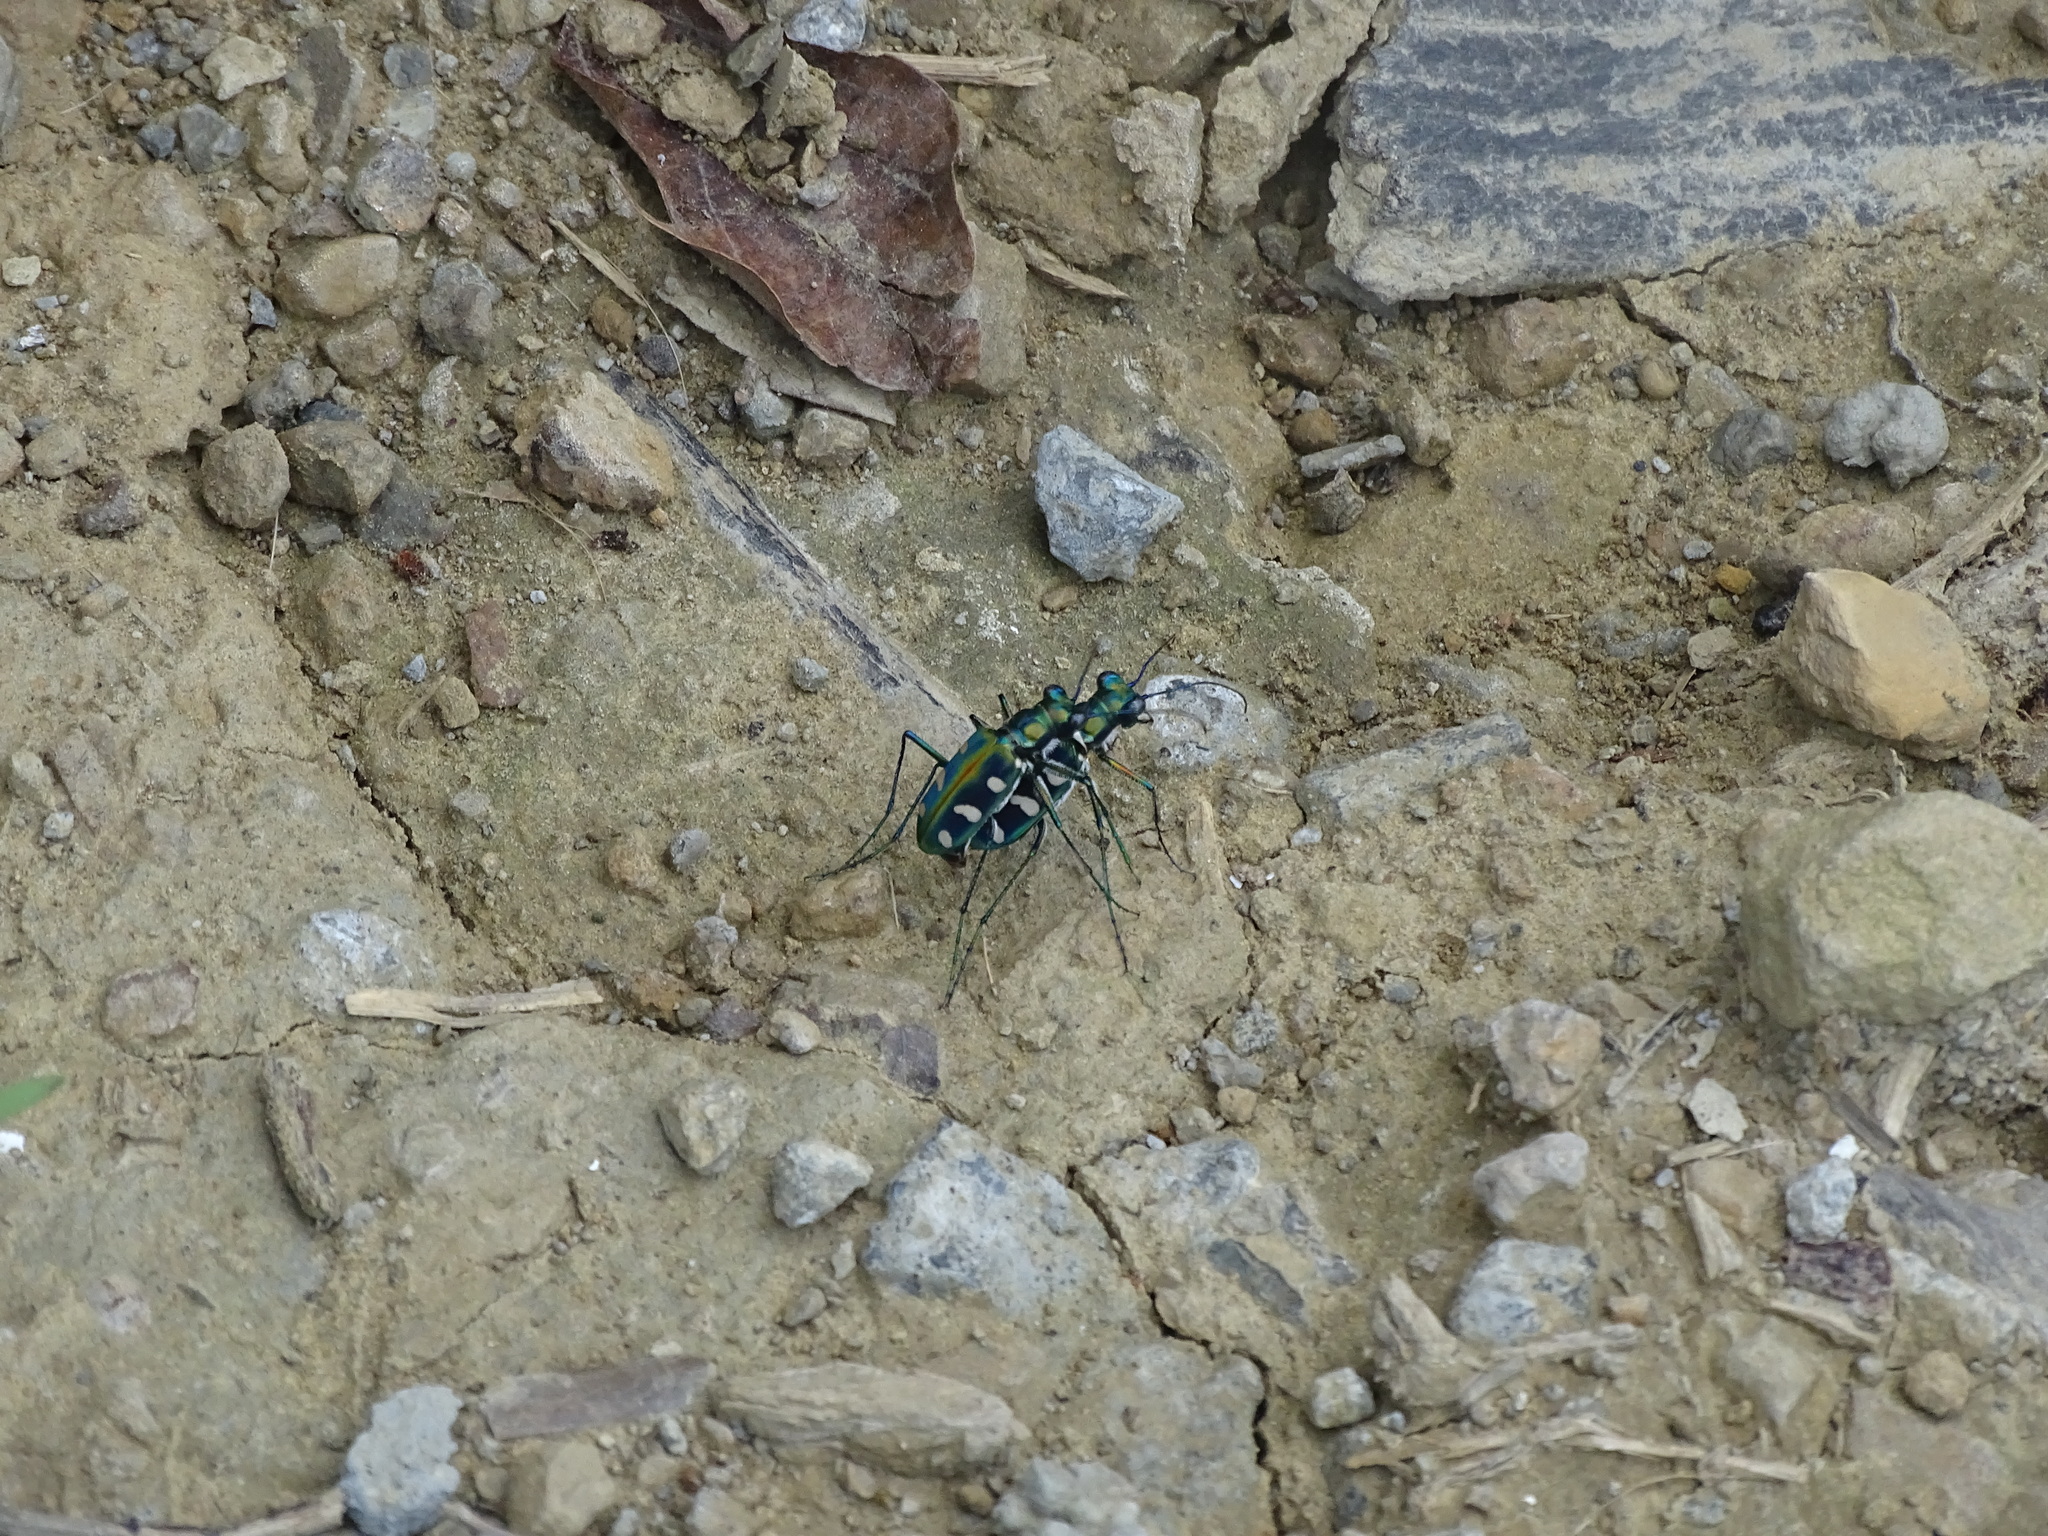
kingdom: Animalia
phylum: Arthropoda
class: Insecta
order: Coleoptera
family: Carabidae
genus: Cicindela
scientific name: Cicindela batesi
